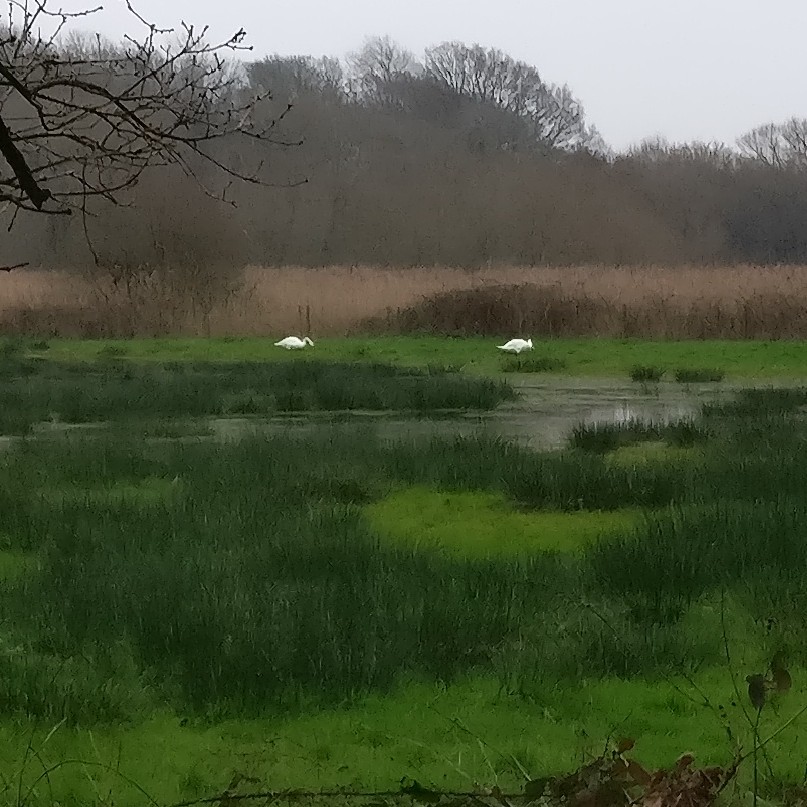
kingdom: Animalia
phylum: Chordata
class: Aves
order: Anseriformes
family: Anatidae
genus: Cygnus
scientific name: Cygnus olor
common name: Mute swan
